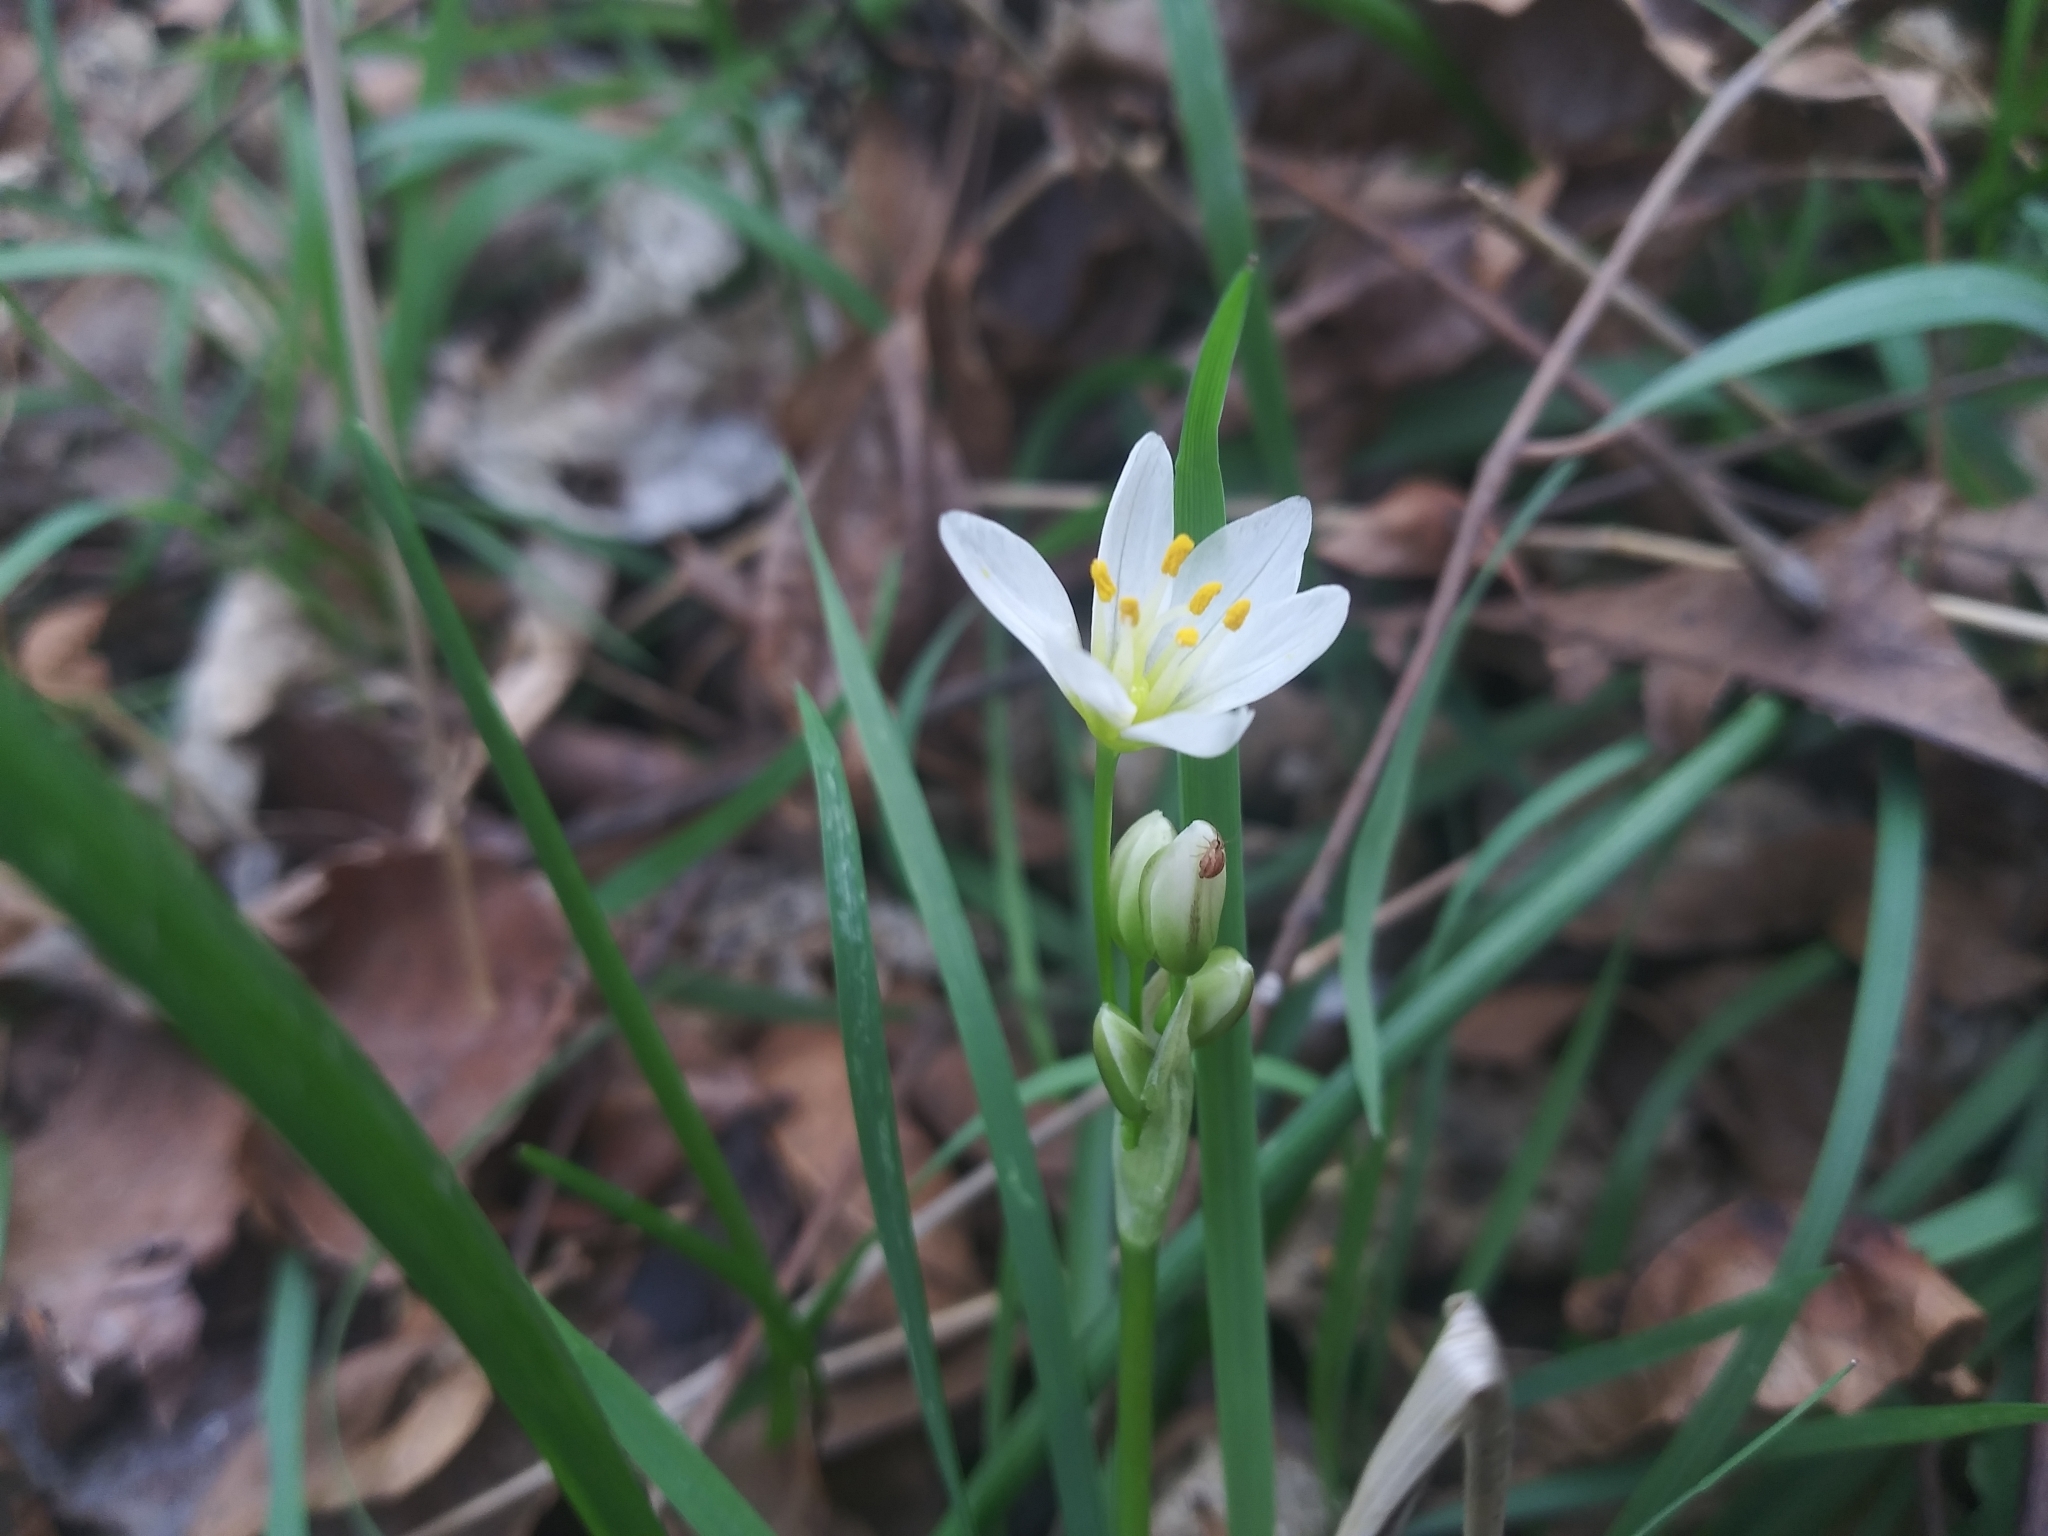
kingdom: Plantae
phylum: Tracheophyta
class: Liliopsida
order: Asparagales
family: Amaryllidaceae
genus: Nothoscordum
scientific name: Nothoscordum bivalve
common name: Crow-poison
